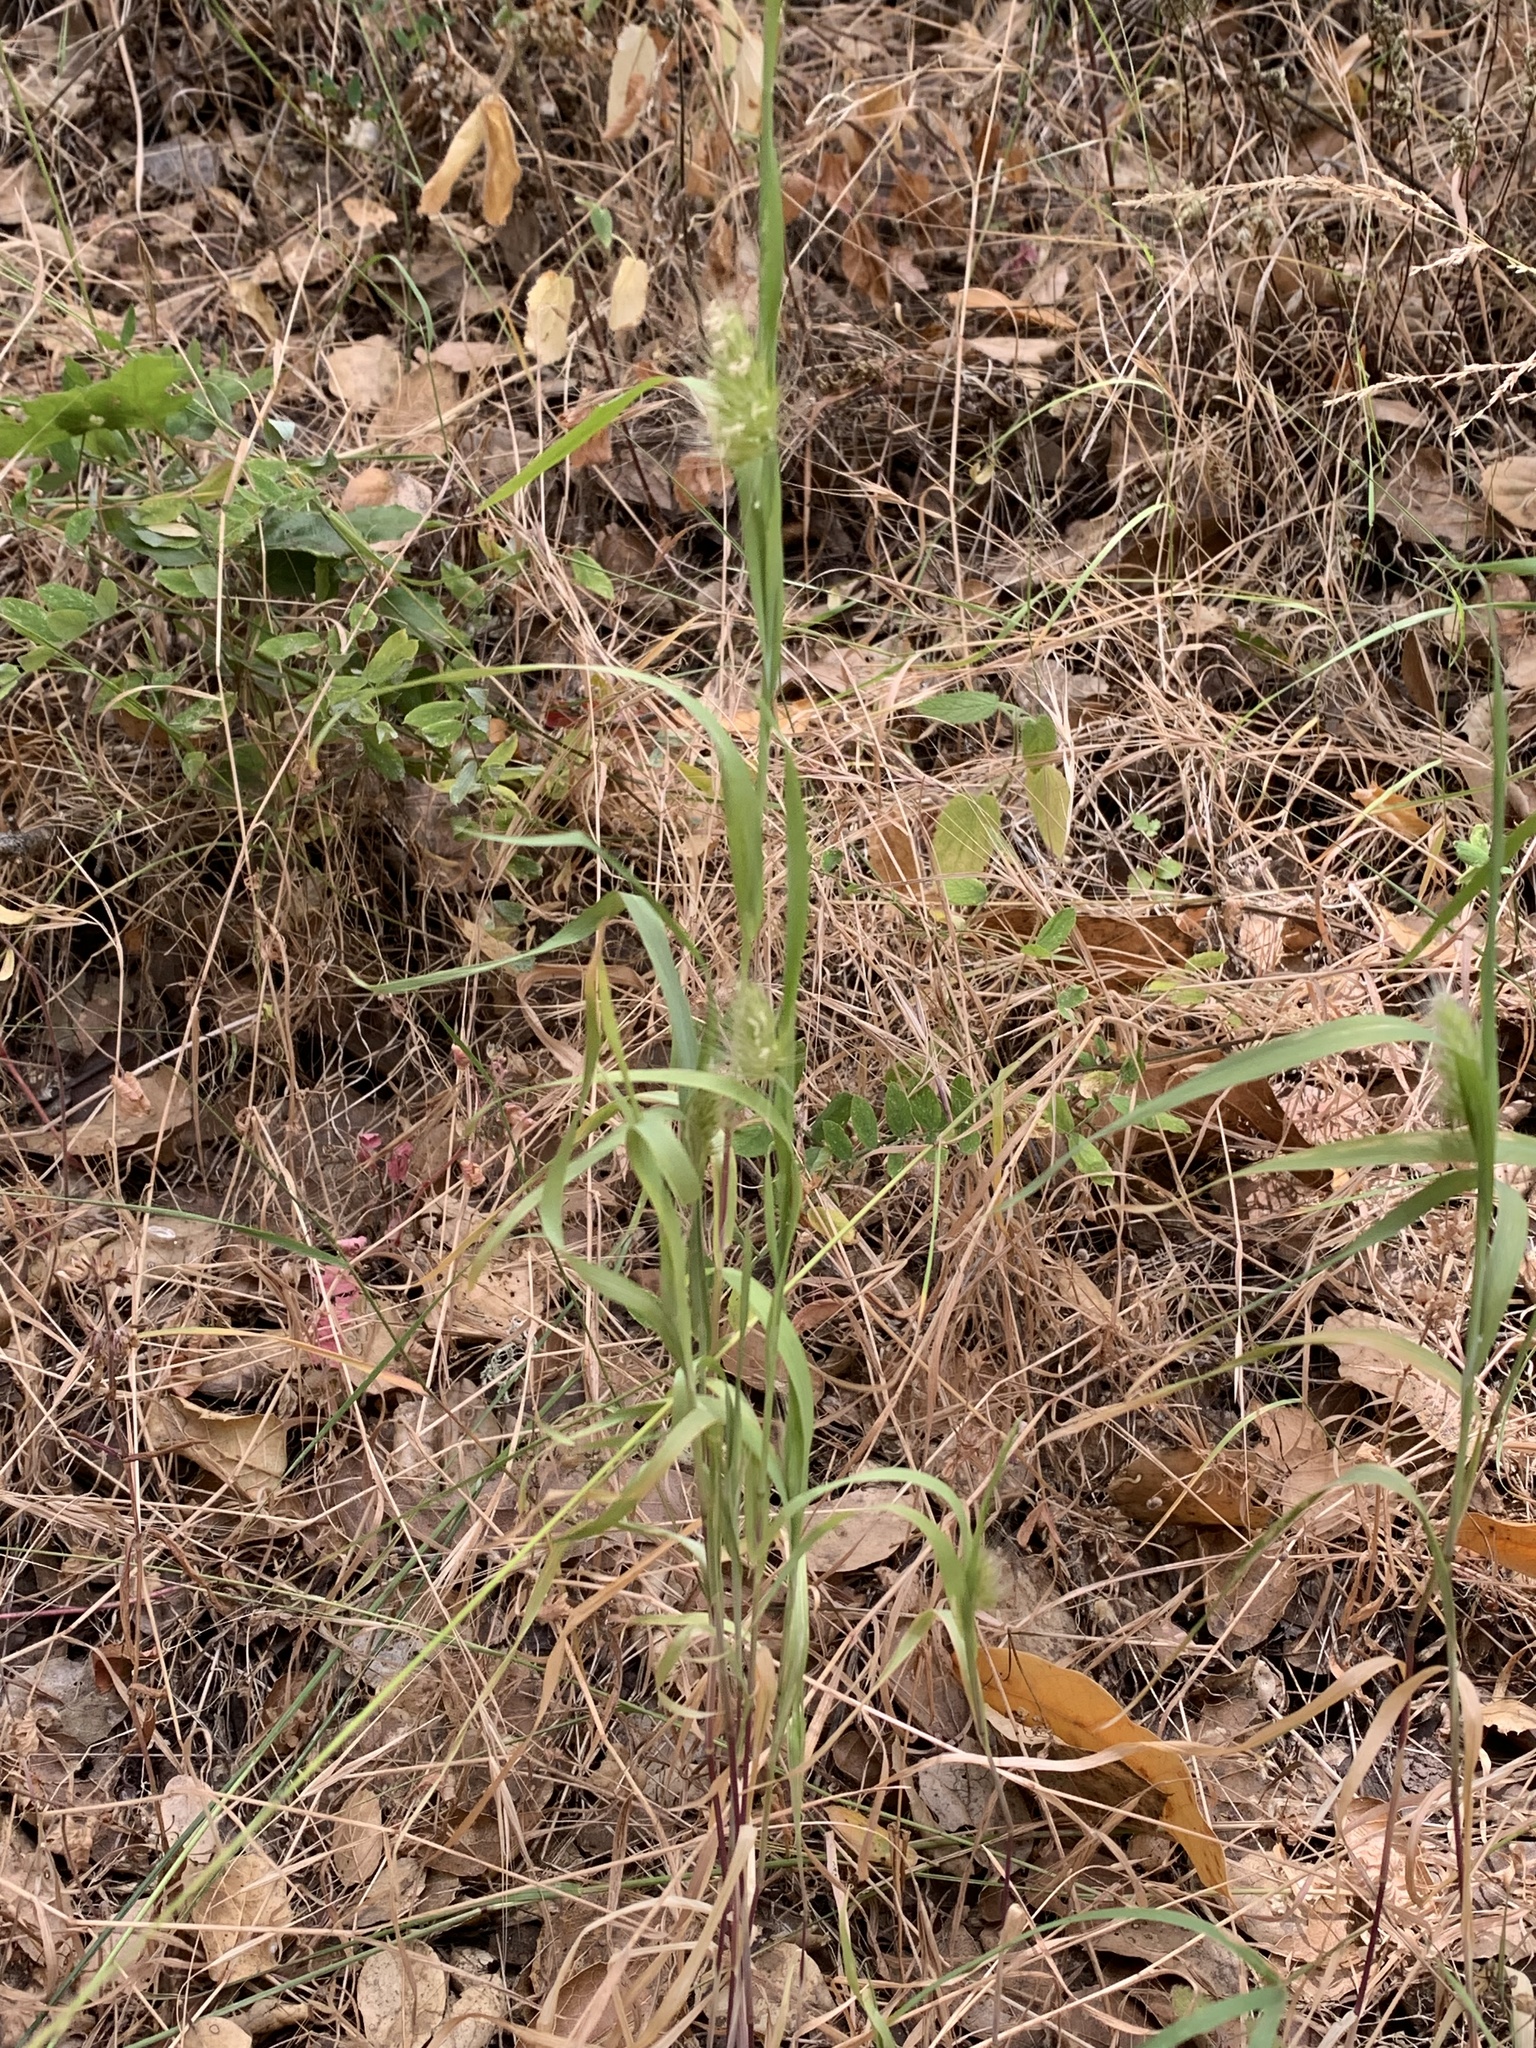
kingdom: Plantae
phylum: Tracheophyta
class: Liliopsida
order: Poales
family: Poaceae
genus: Cynosurus
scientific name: Cynosurus echinatus
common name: Rough dog's-tail
